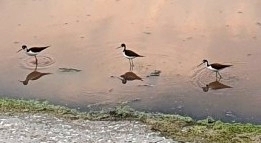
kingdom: Animalia
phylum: Chordata
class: Aves
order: Charadriiformes
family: Recurvirostridae
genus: Himantopus
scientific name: Himantopus mexicanus
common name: Black-necked stilt
